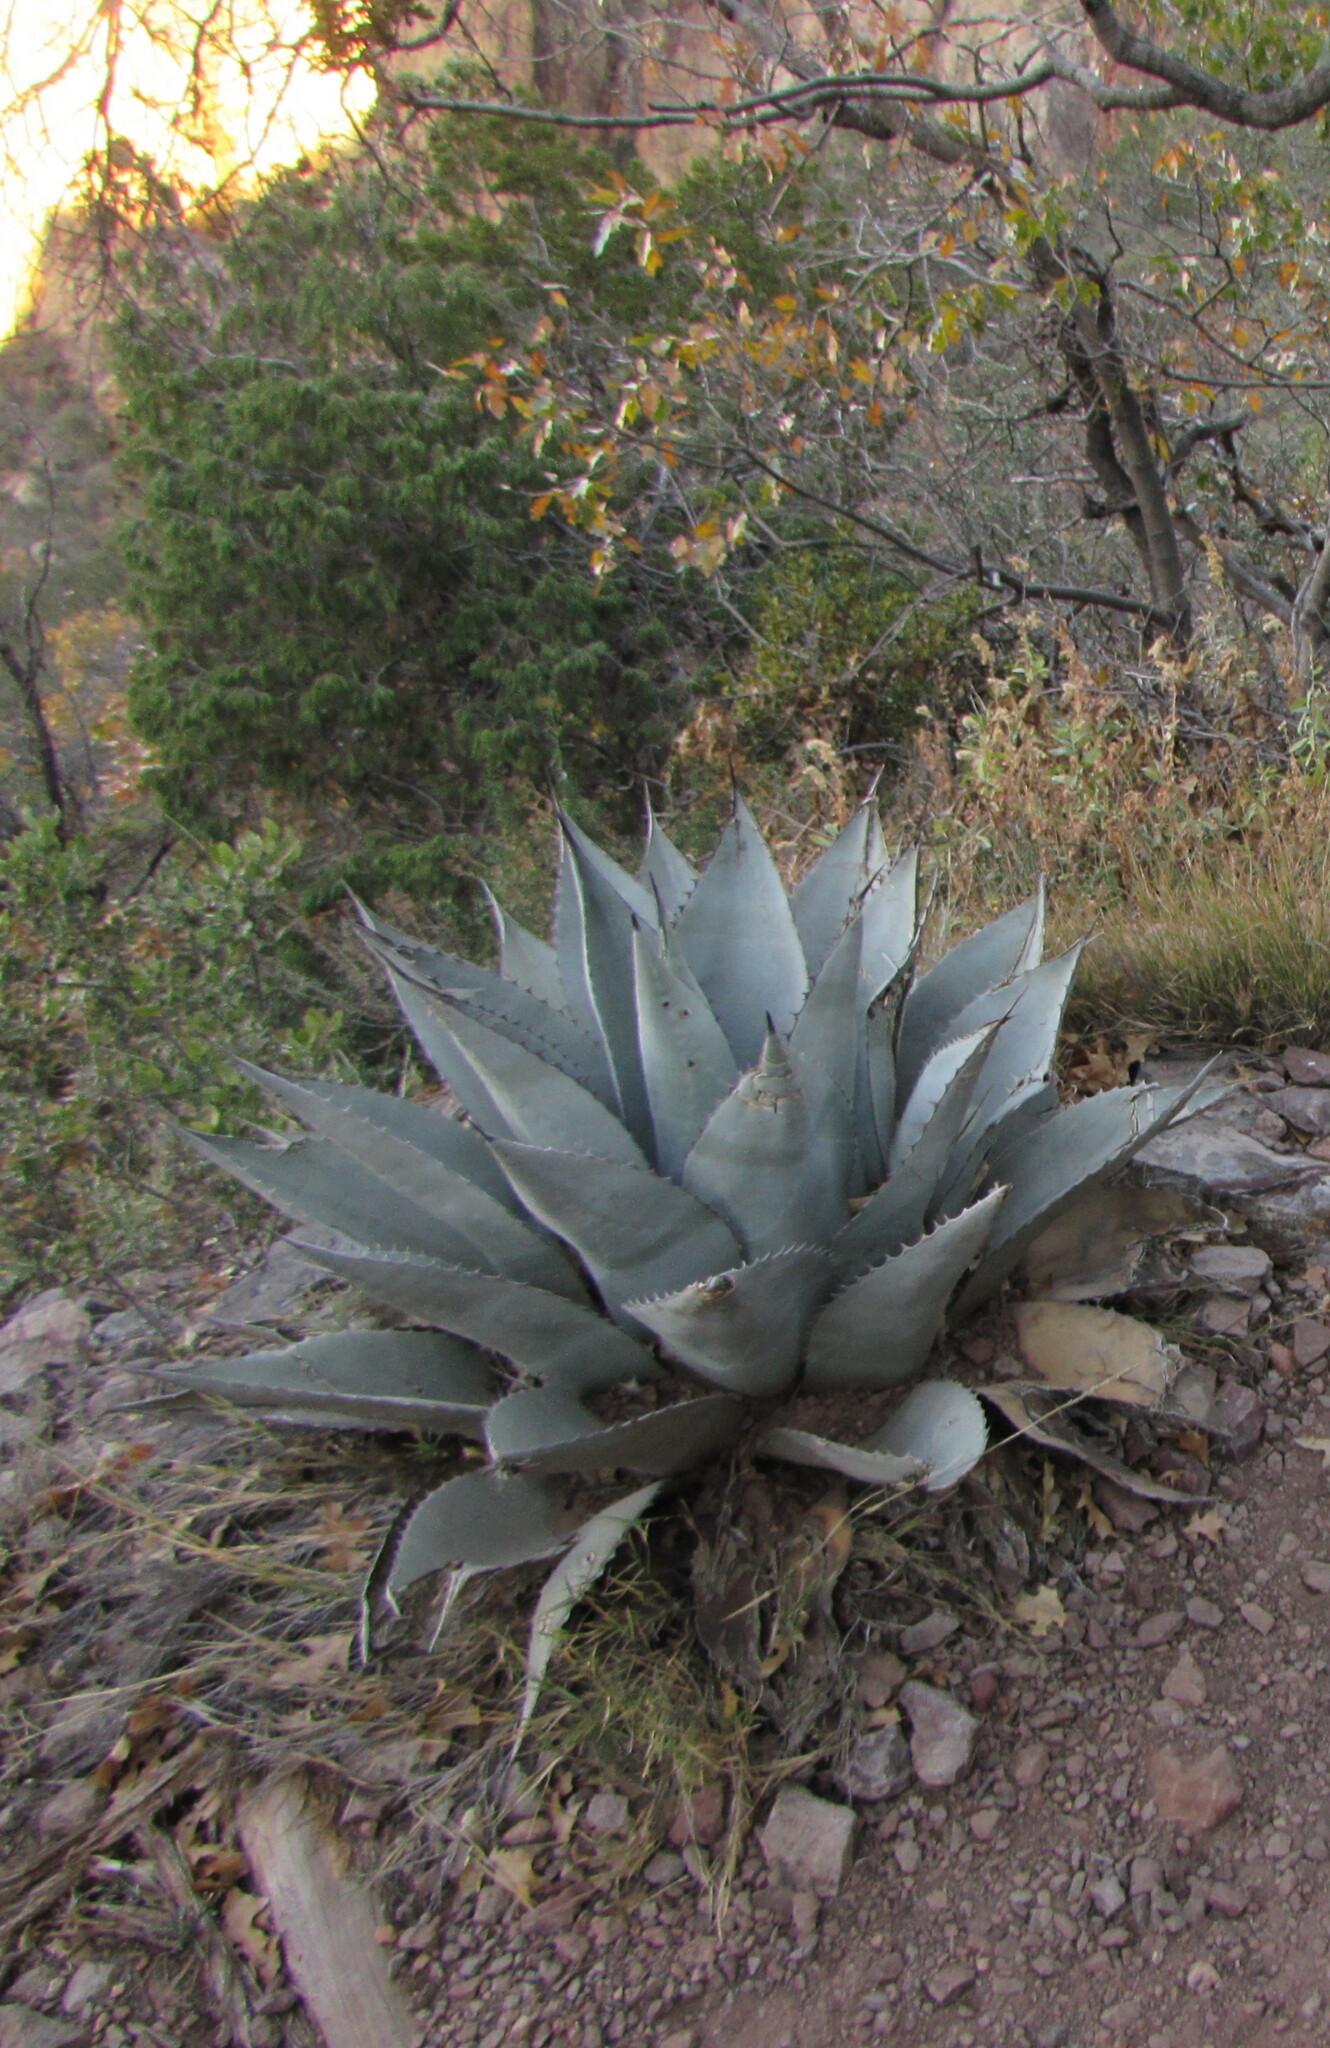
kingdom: Plantae
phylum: Tracheophyta
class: Liliopsida
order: Asparagales
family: Asparagaceae
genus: Agave
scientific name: Agave havardiana
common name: Havard agave
